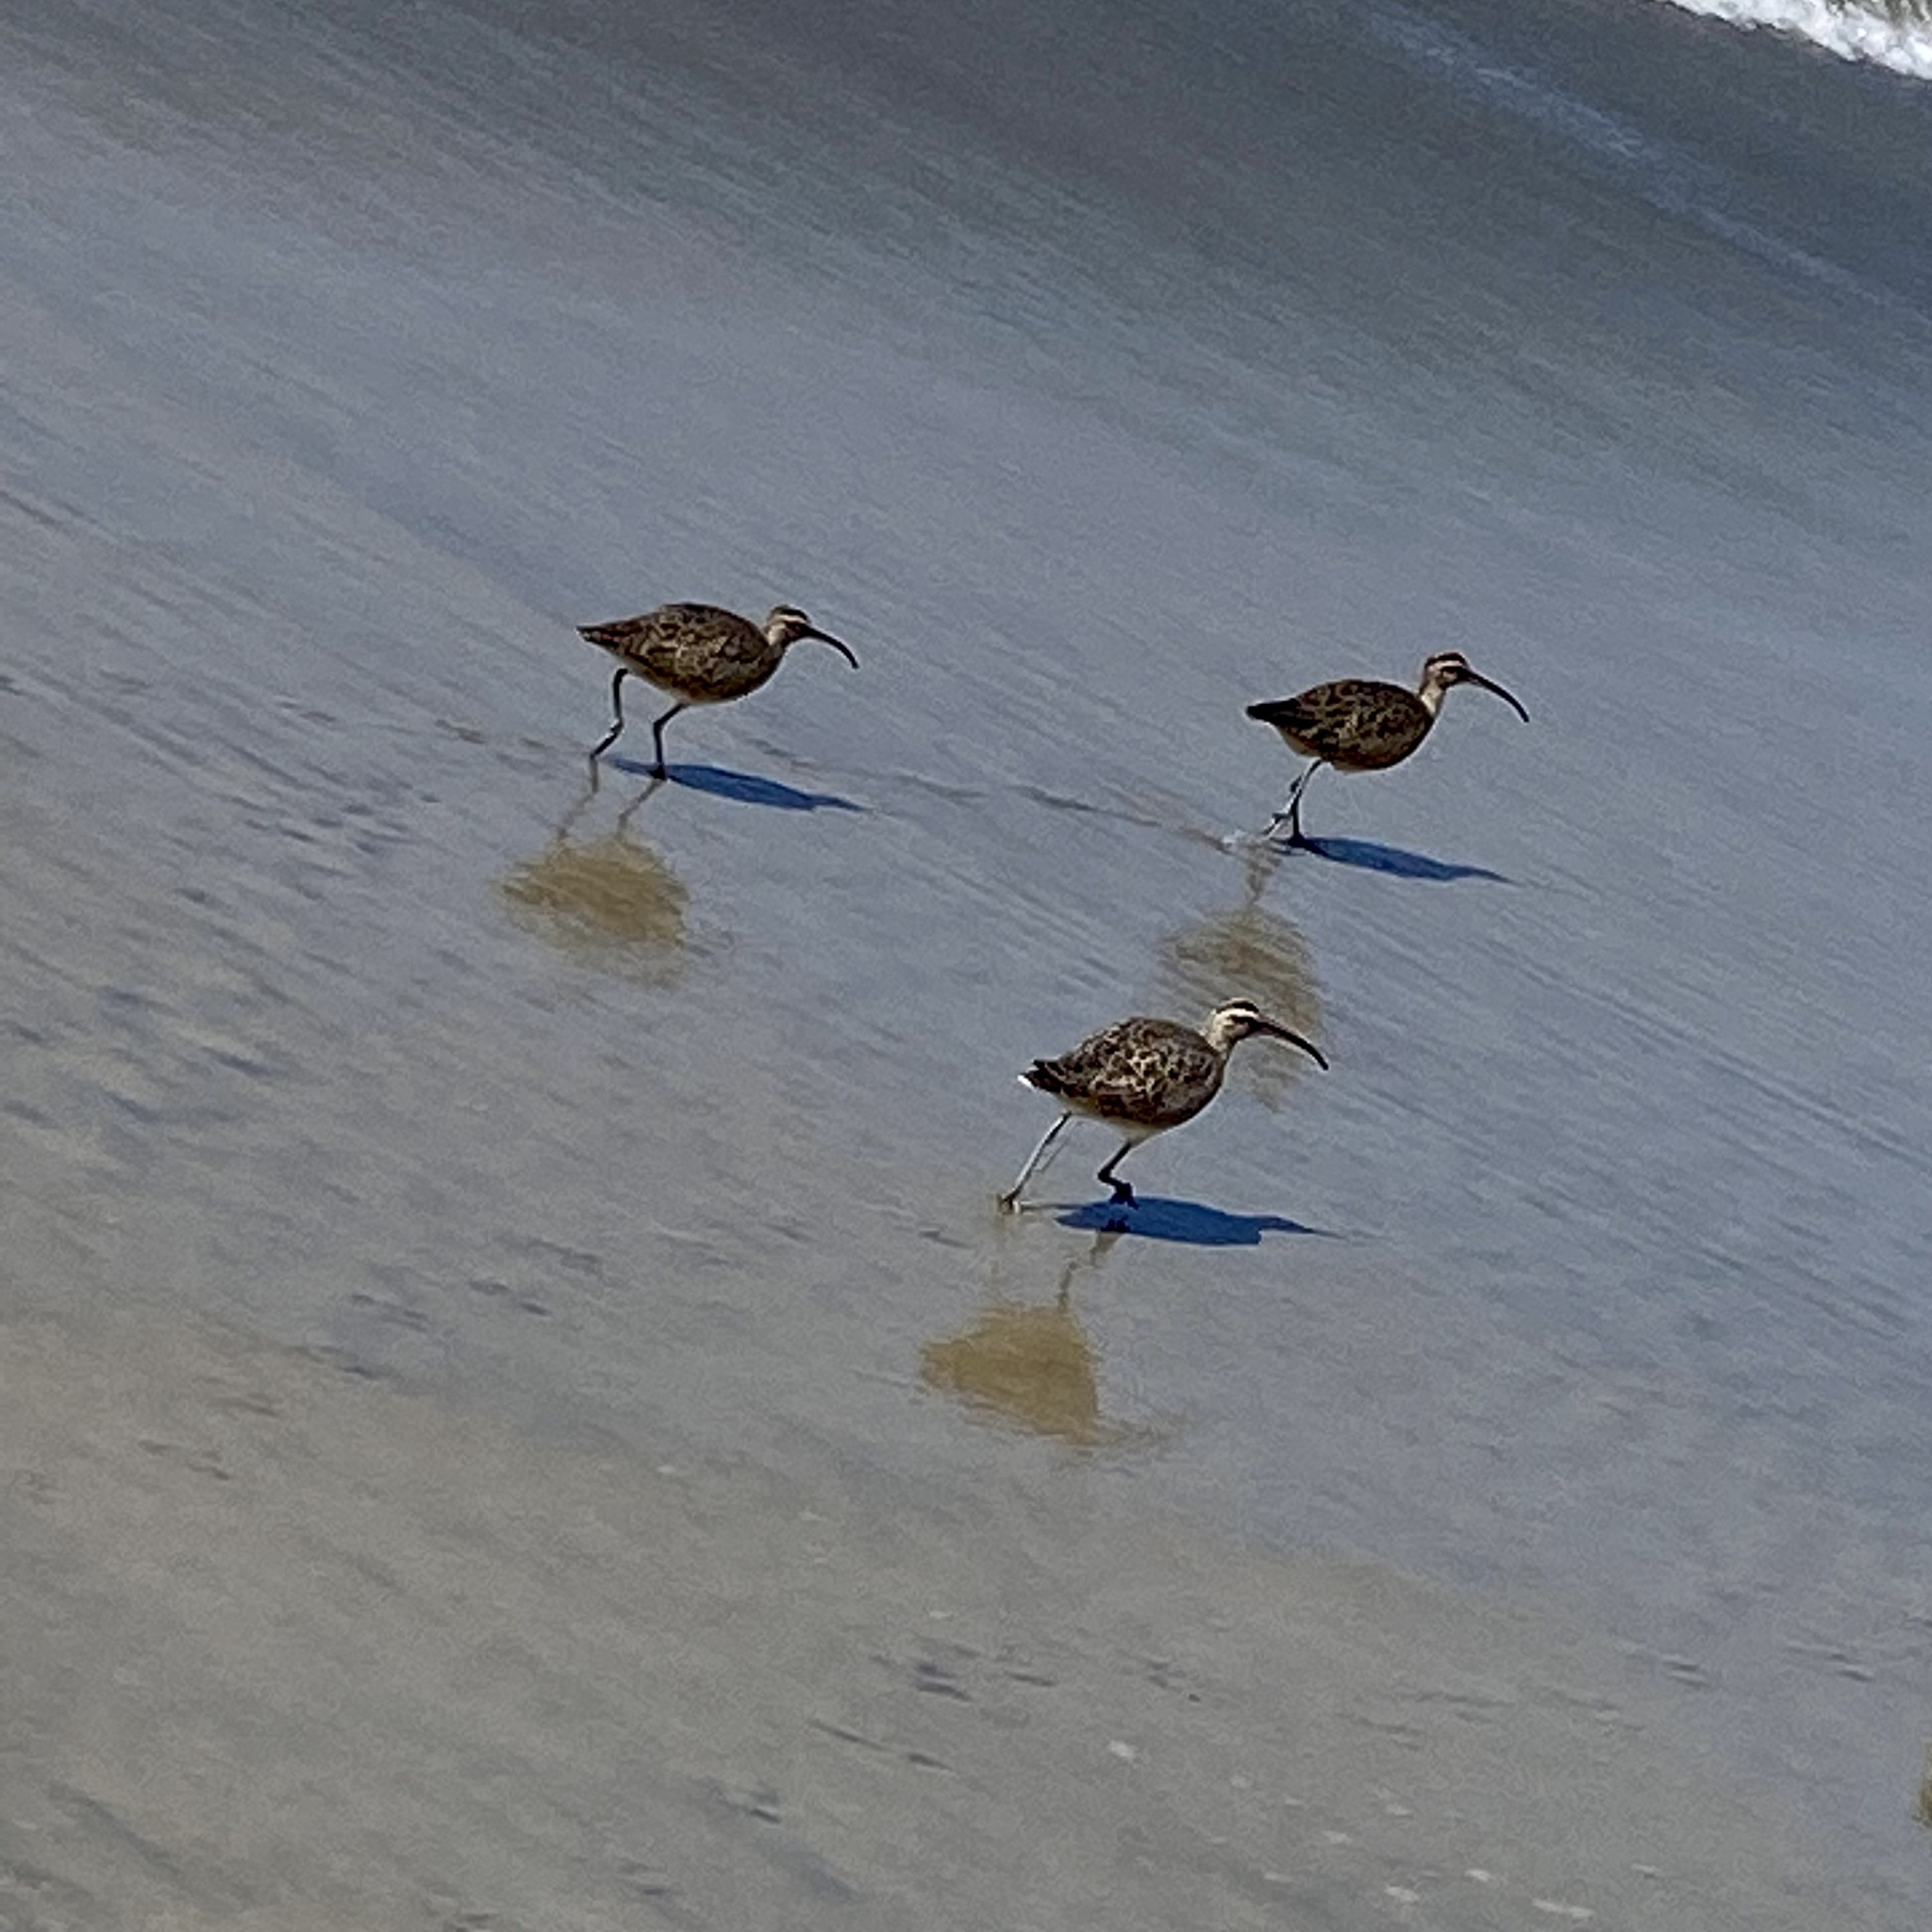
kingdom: Animalia
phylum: Chordata
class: Aves
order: Charadriiformes
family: Scolopacidae
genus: Numenius
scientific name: Numenius phaeopus
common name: Whimbrel
